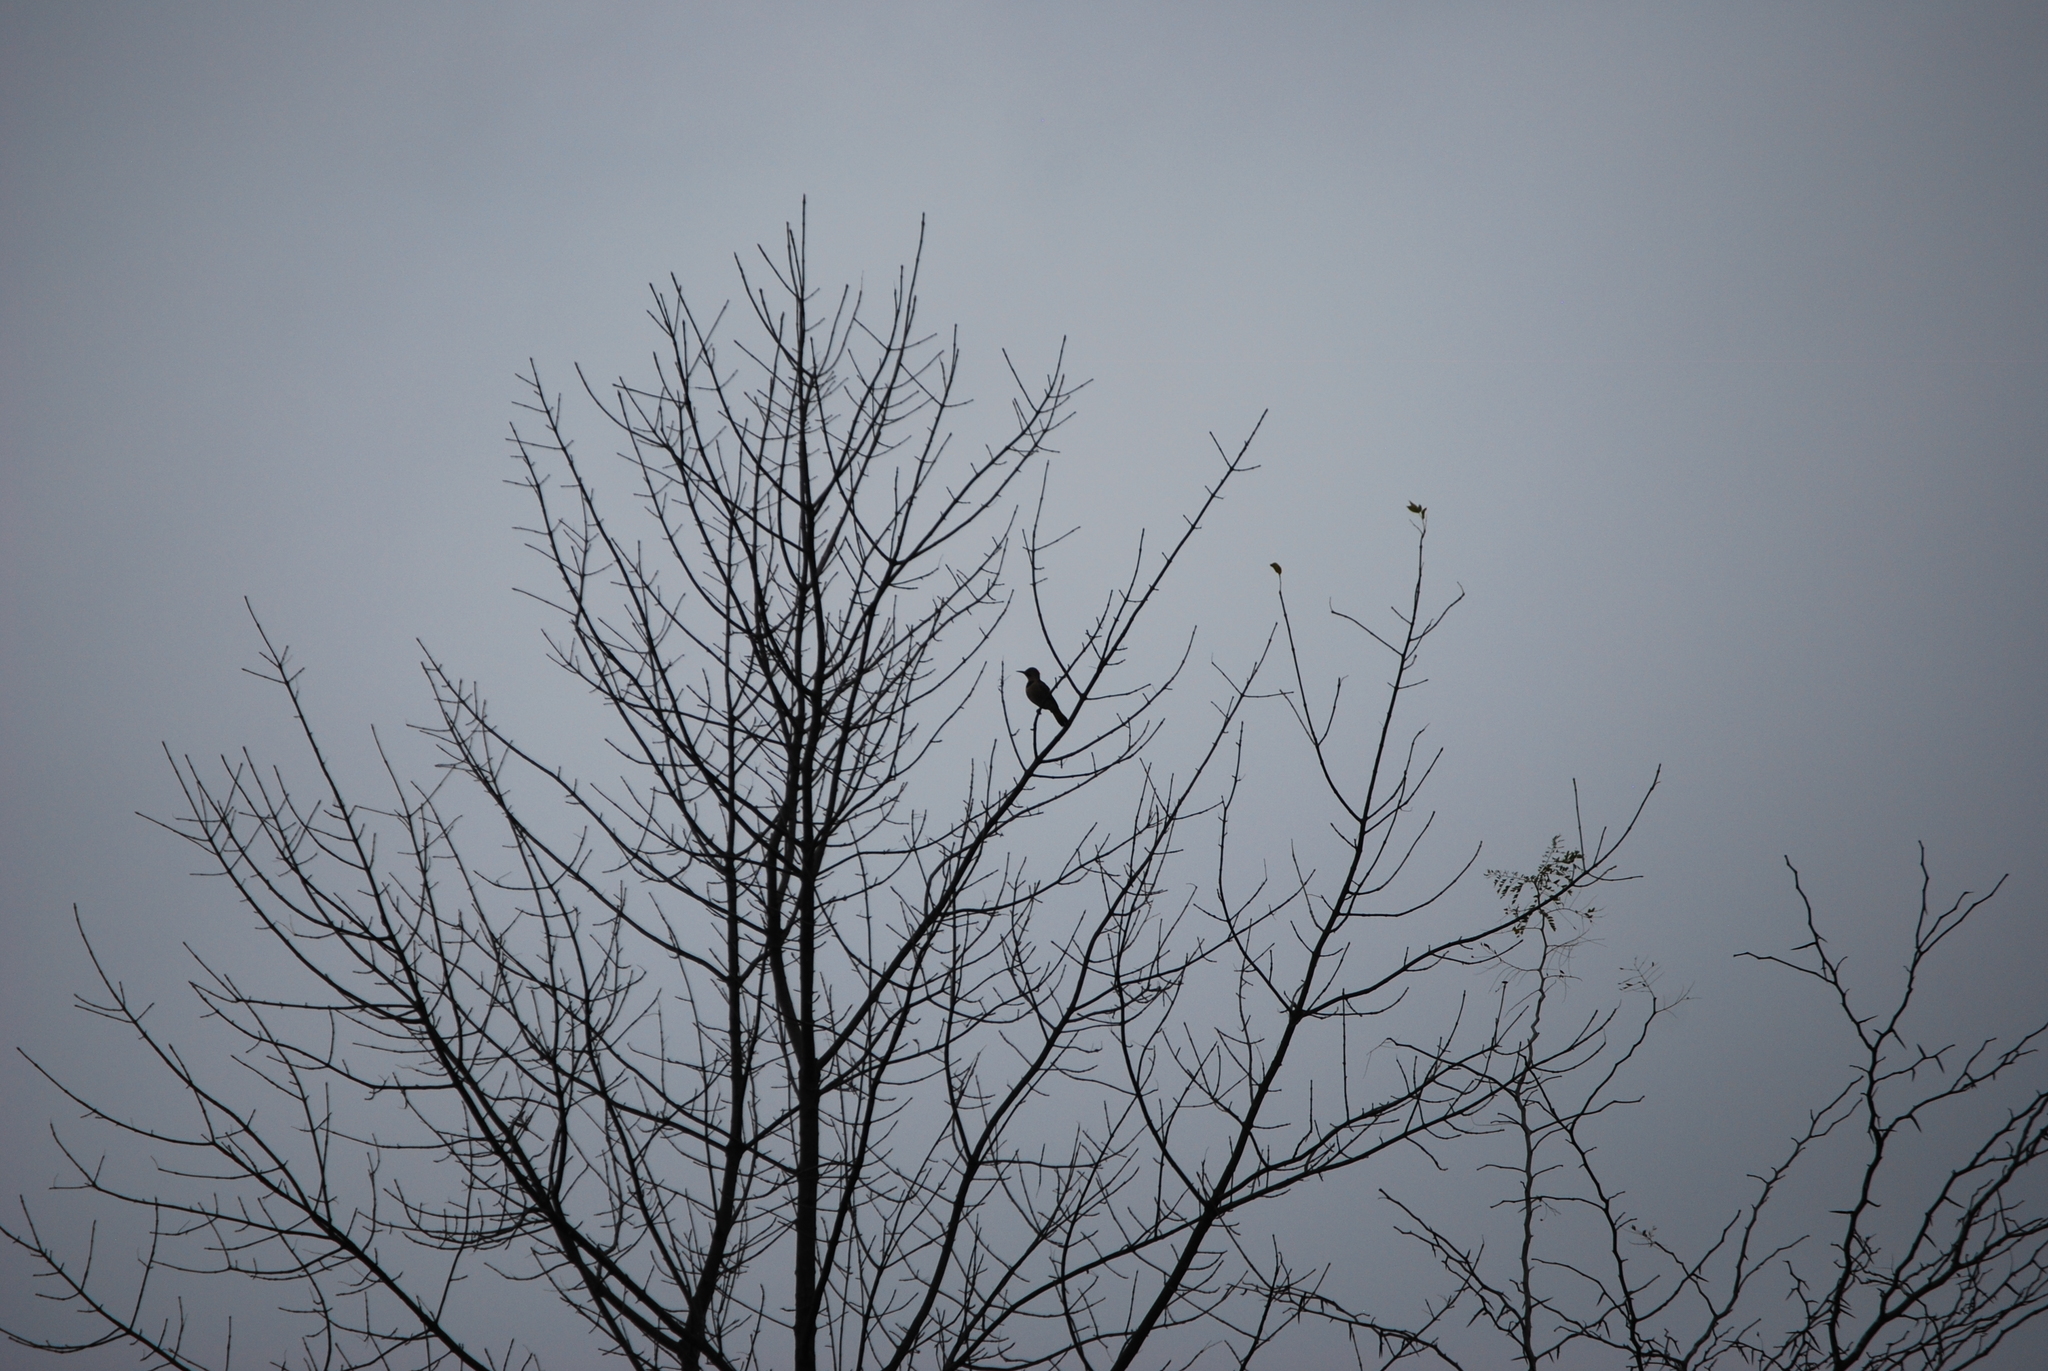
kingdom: Animalia
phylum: Chordata
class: Aves
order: Piciformes
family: Picidae
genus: Colaptes
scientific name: Colaptes auratus
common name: Northern flicker
